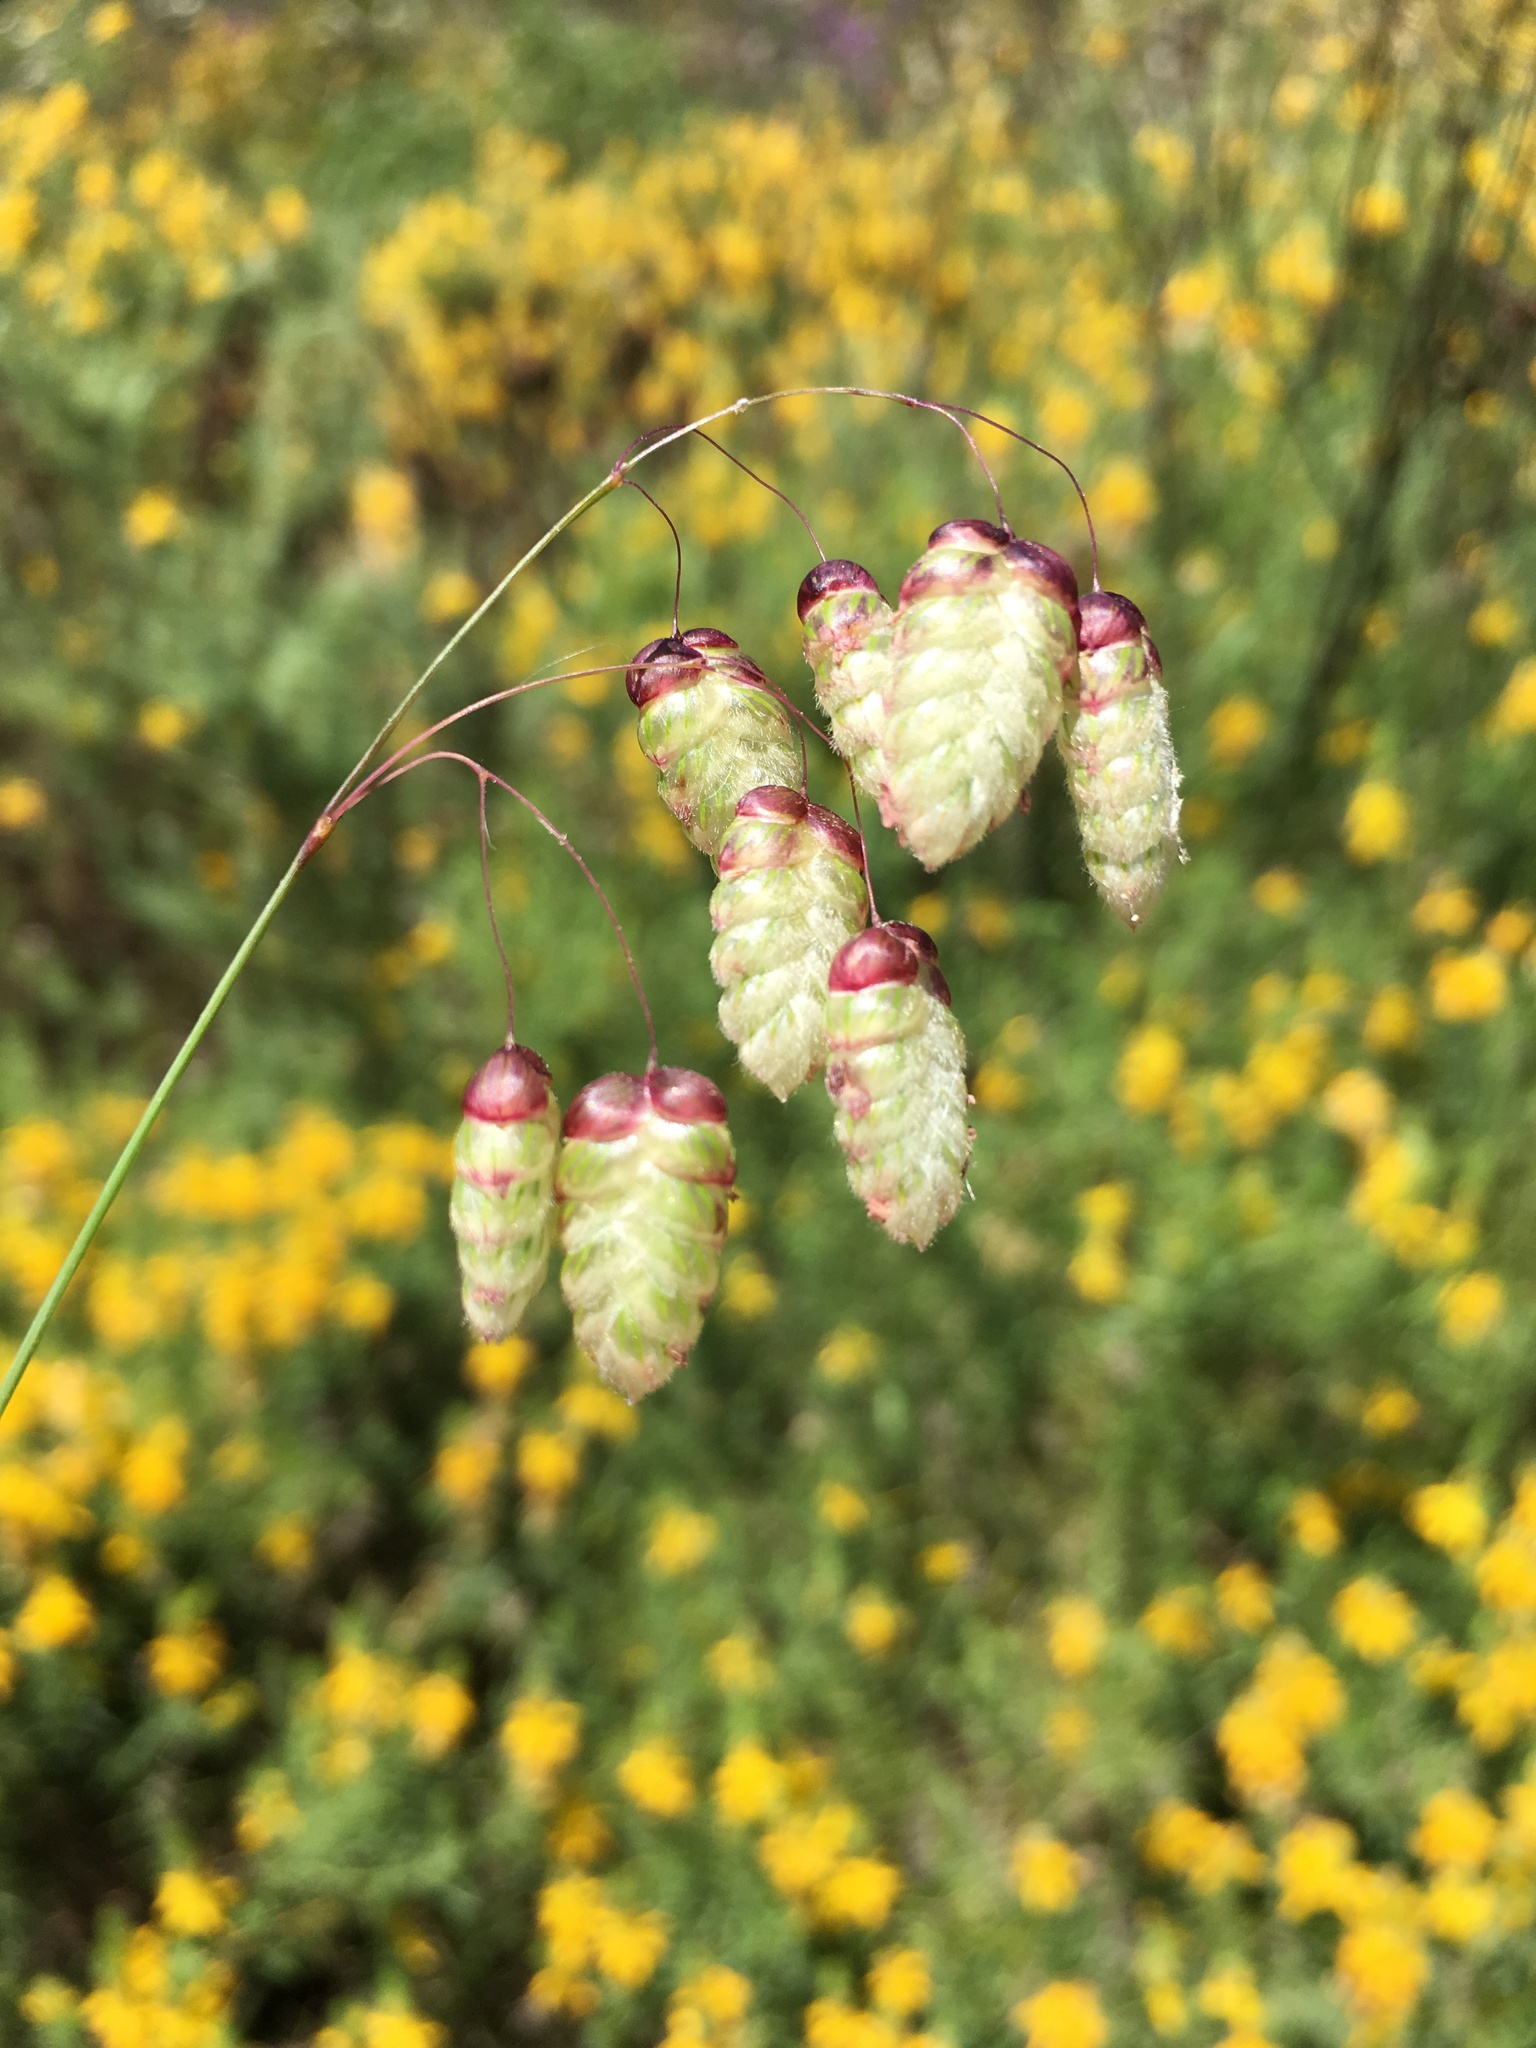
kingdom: Plantae
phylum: Tracheophyta
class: Liliopsida
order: Poales
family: Poaceae
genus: Briza
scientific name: Briza maxima
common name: Big quakinggrass
